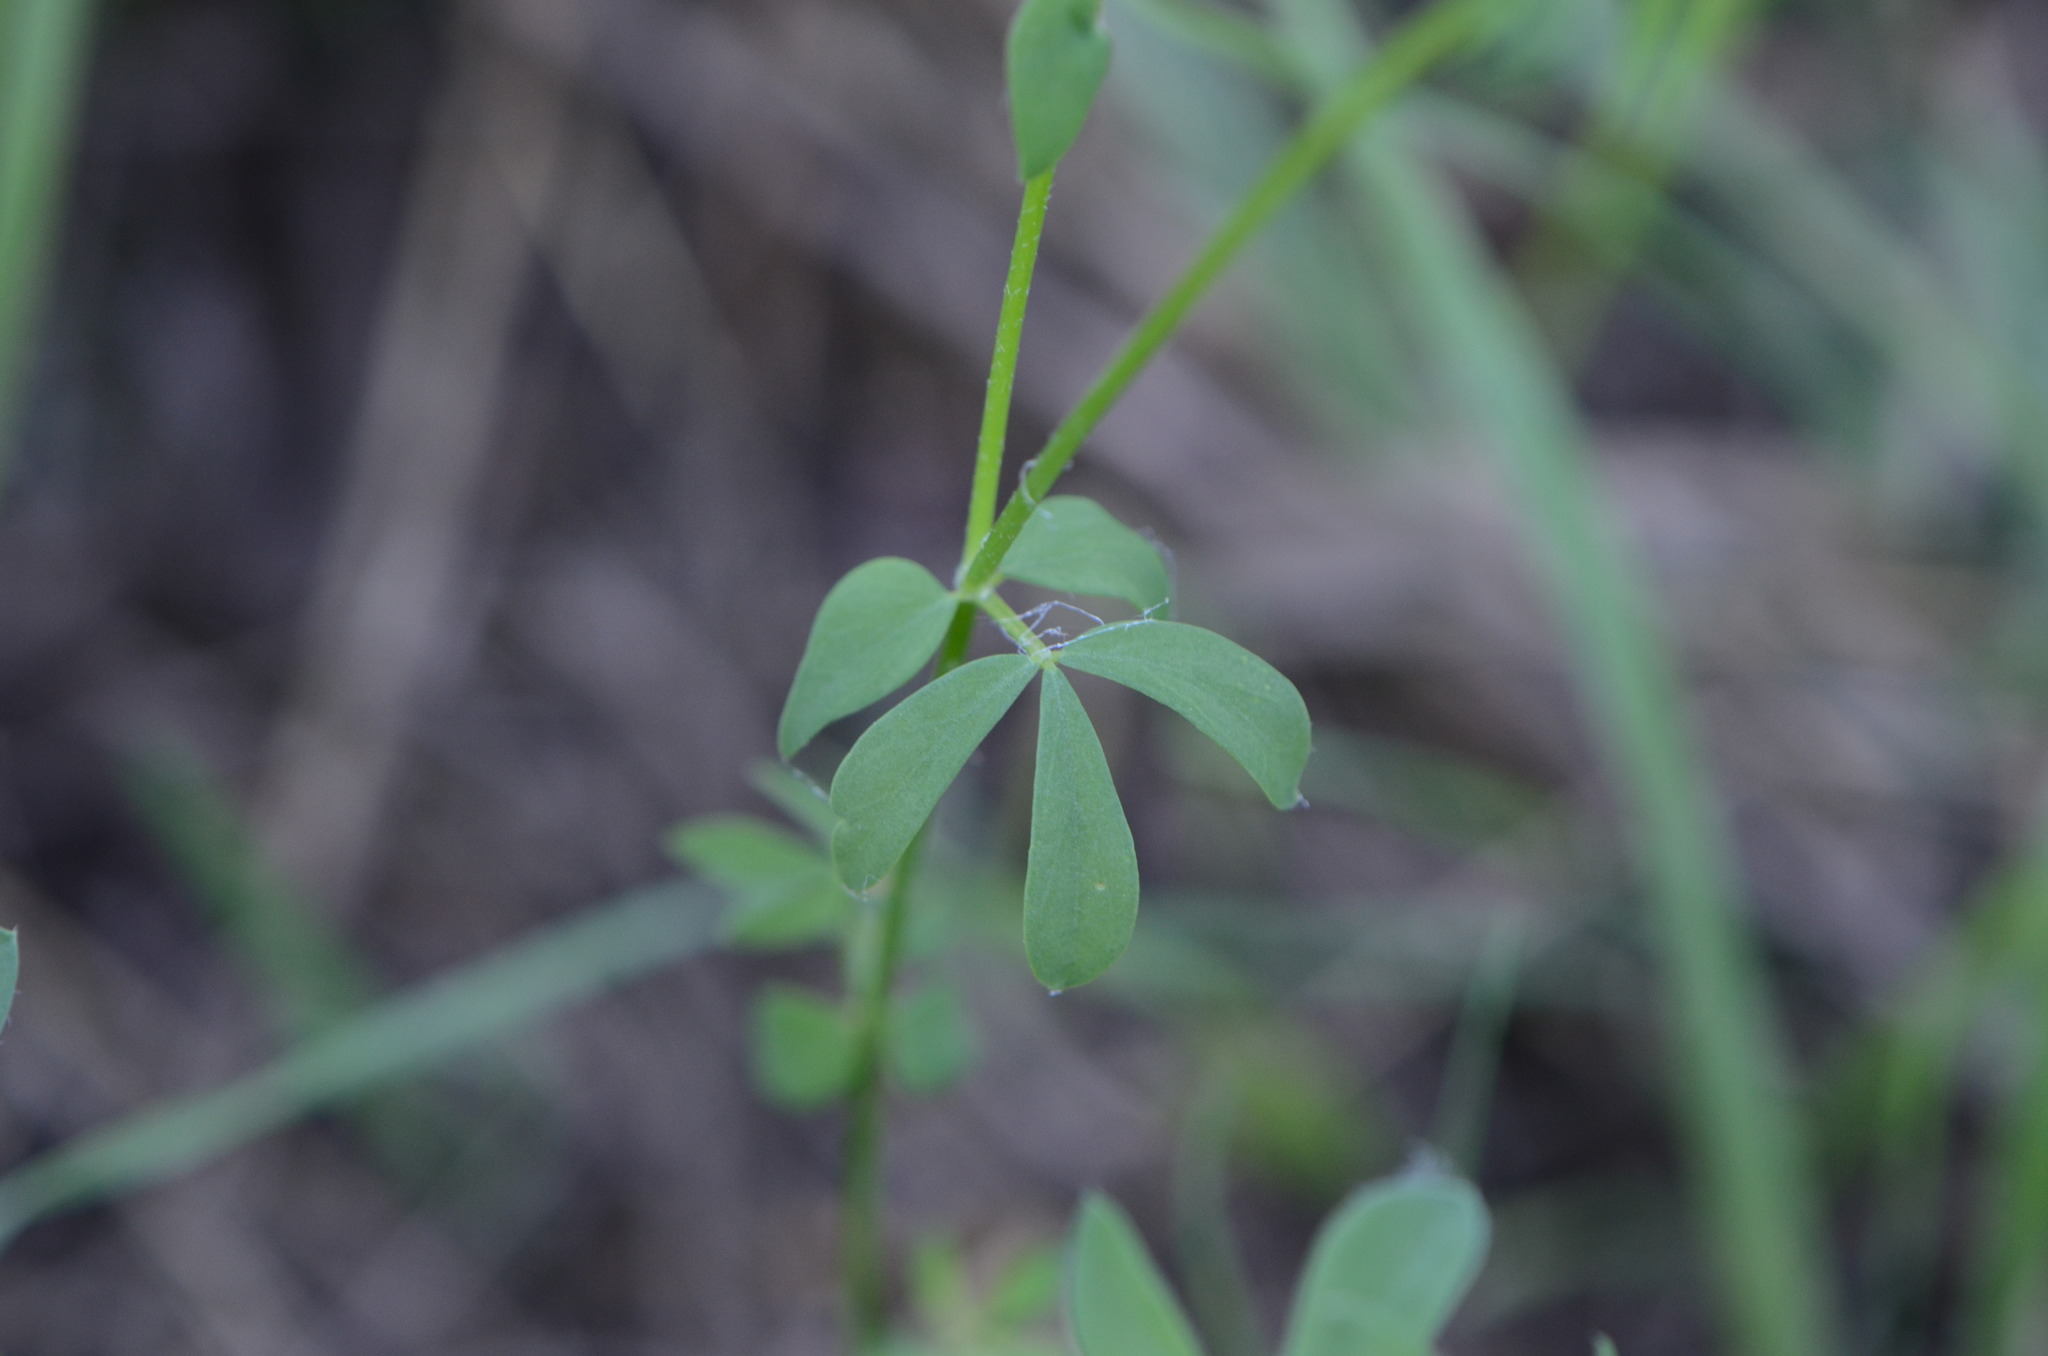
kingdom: Plantae
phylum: Tracheophyta
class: Magnoliopsida
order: Fabales
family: Fabaceae
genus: Lotus
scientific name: Lotus corniculatus
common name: Common bird's-foot-trefoil
